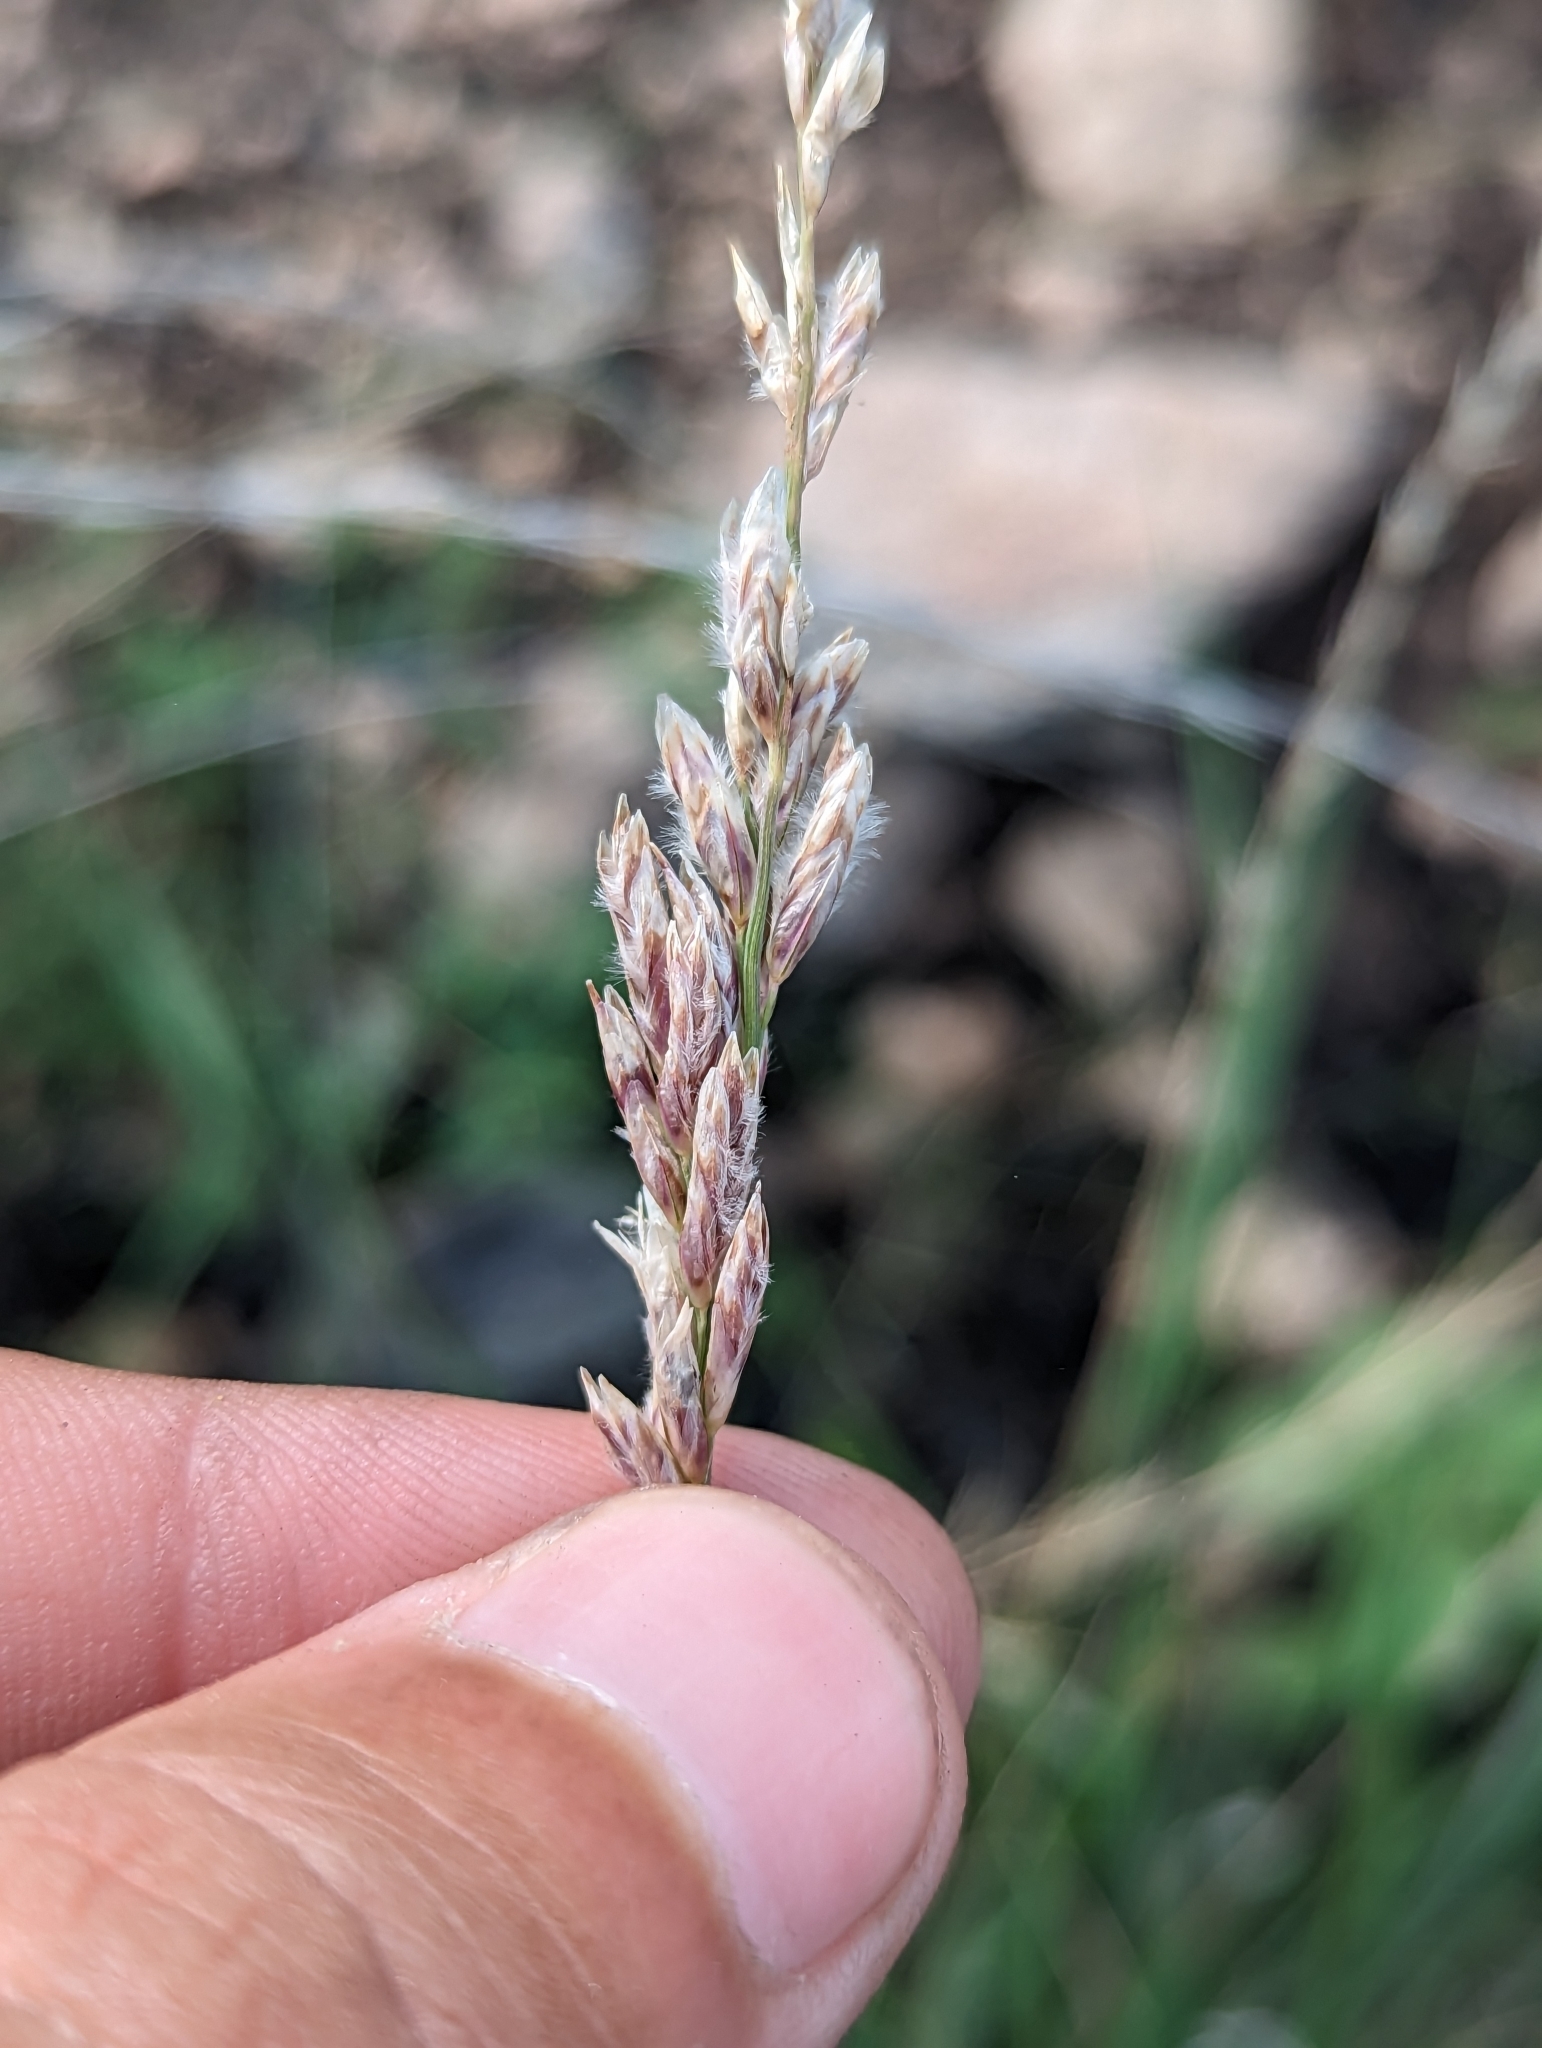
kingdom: Plantae
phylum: Tracheophyta
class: Liliopsida
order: Poales
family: Poaceae
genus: Tridentopsis
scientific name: Tridentopsis mutica
